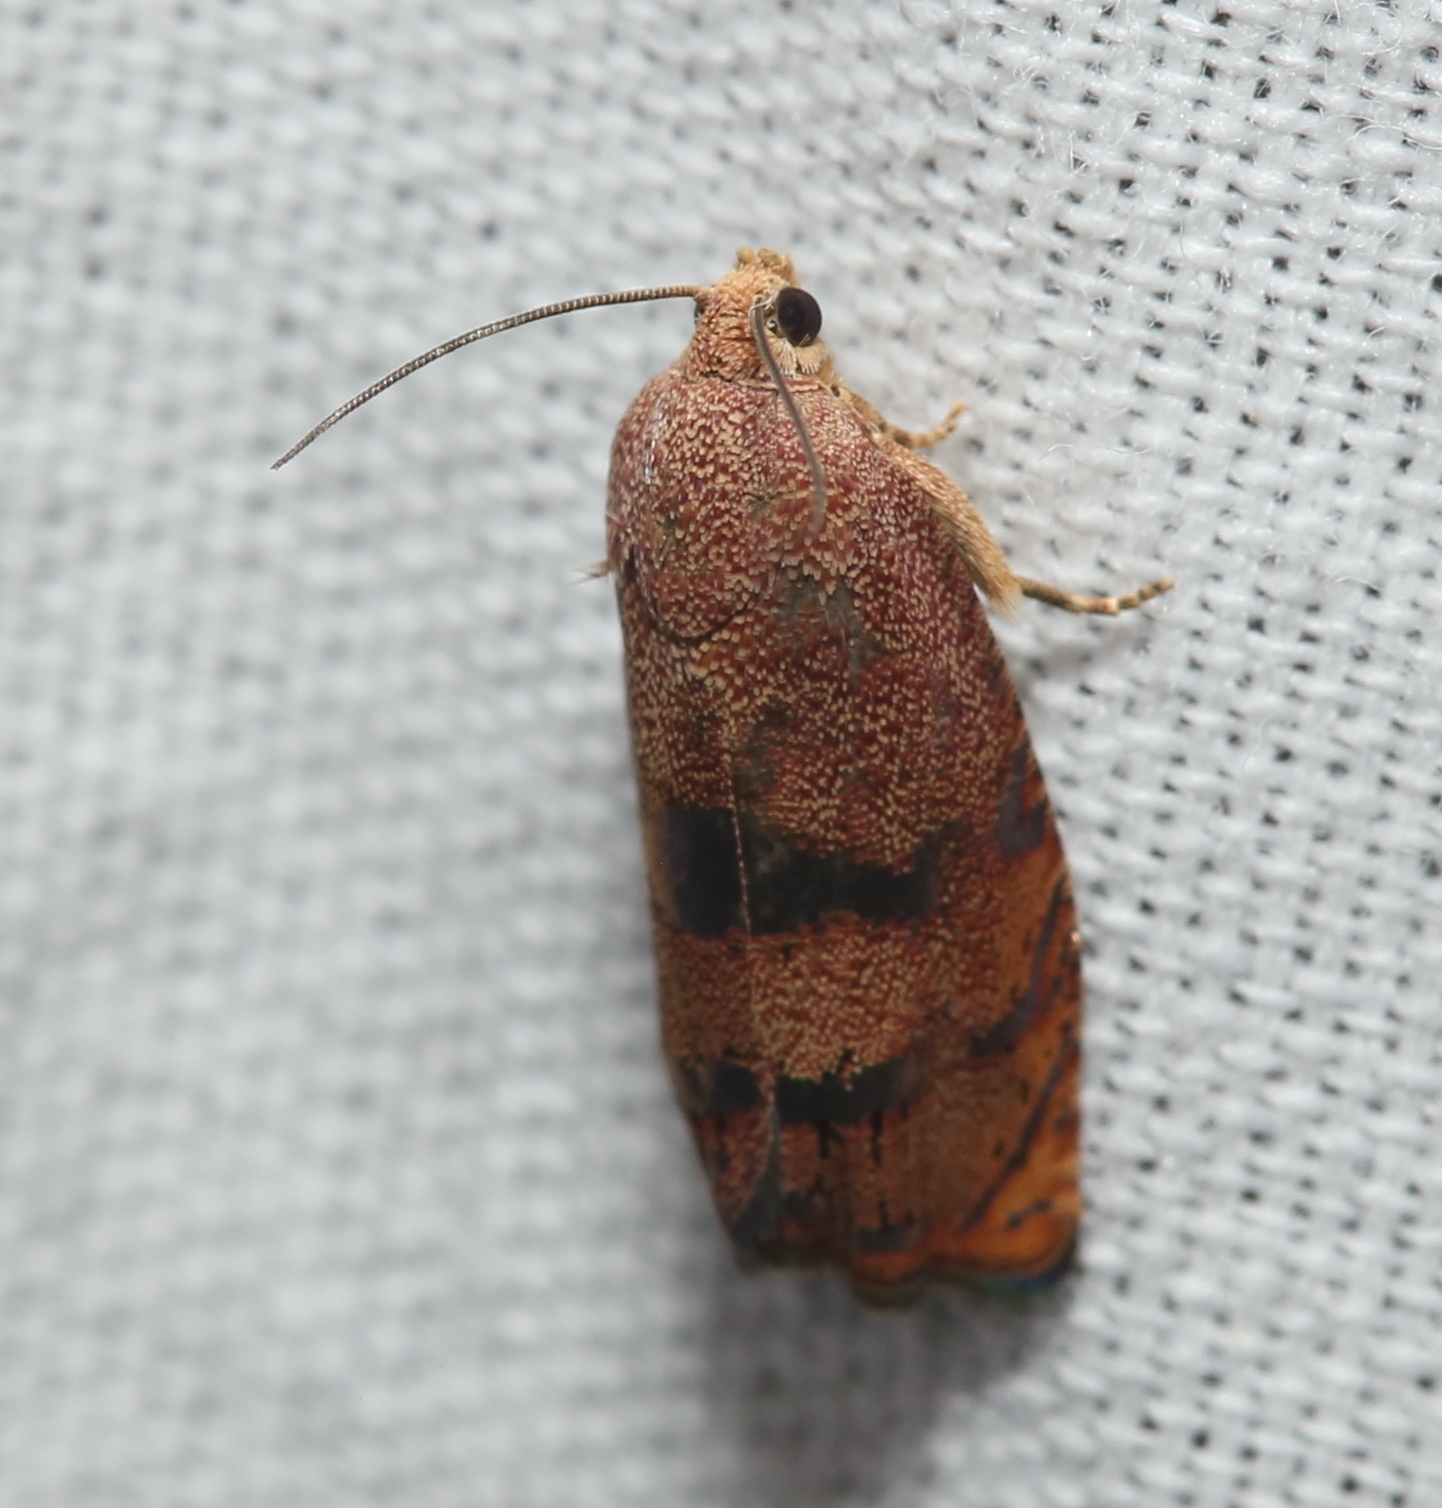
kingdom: Animalia
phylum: Arthropoda
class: Insecta
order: Lepidoptera
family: Tortricidae
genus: Cydia
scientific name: Cydia latiferreana
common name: Filbertworm moth
